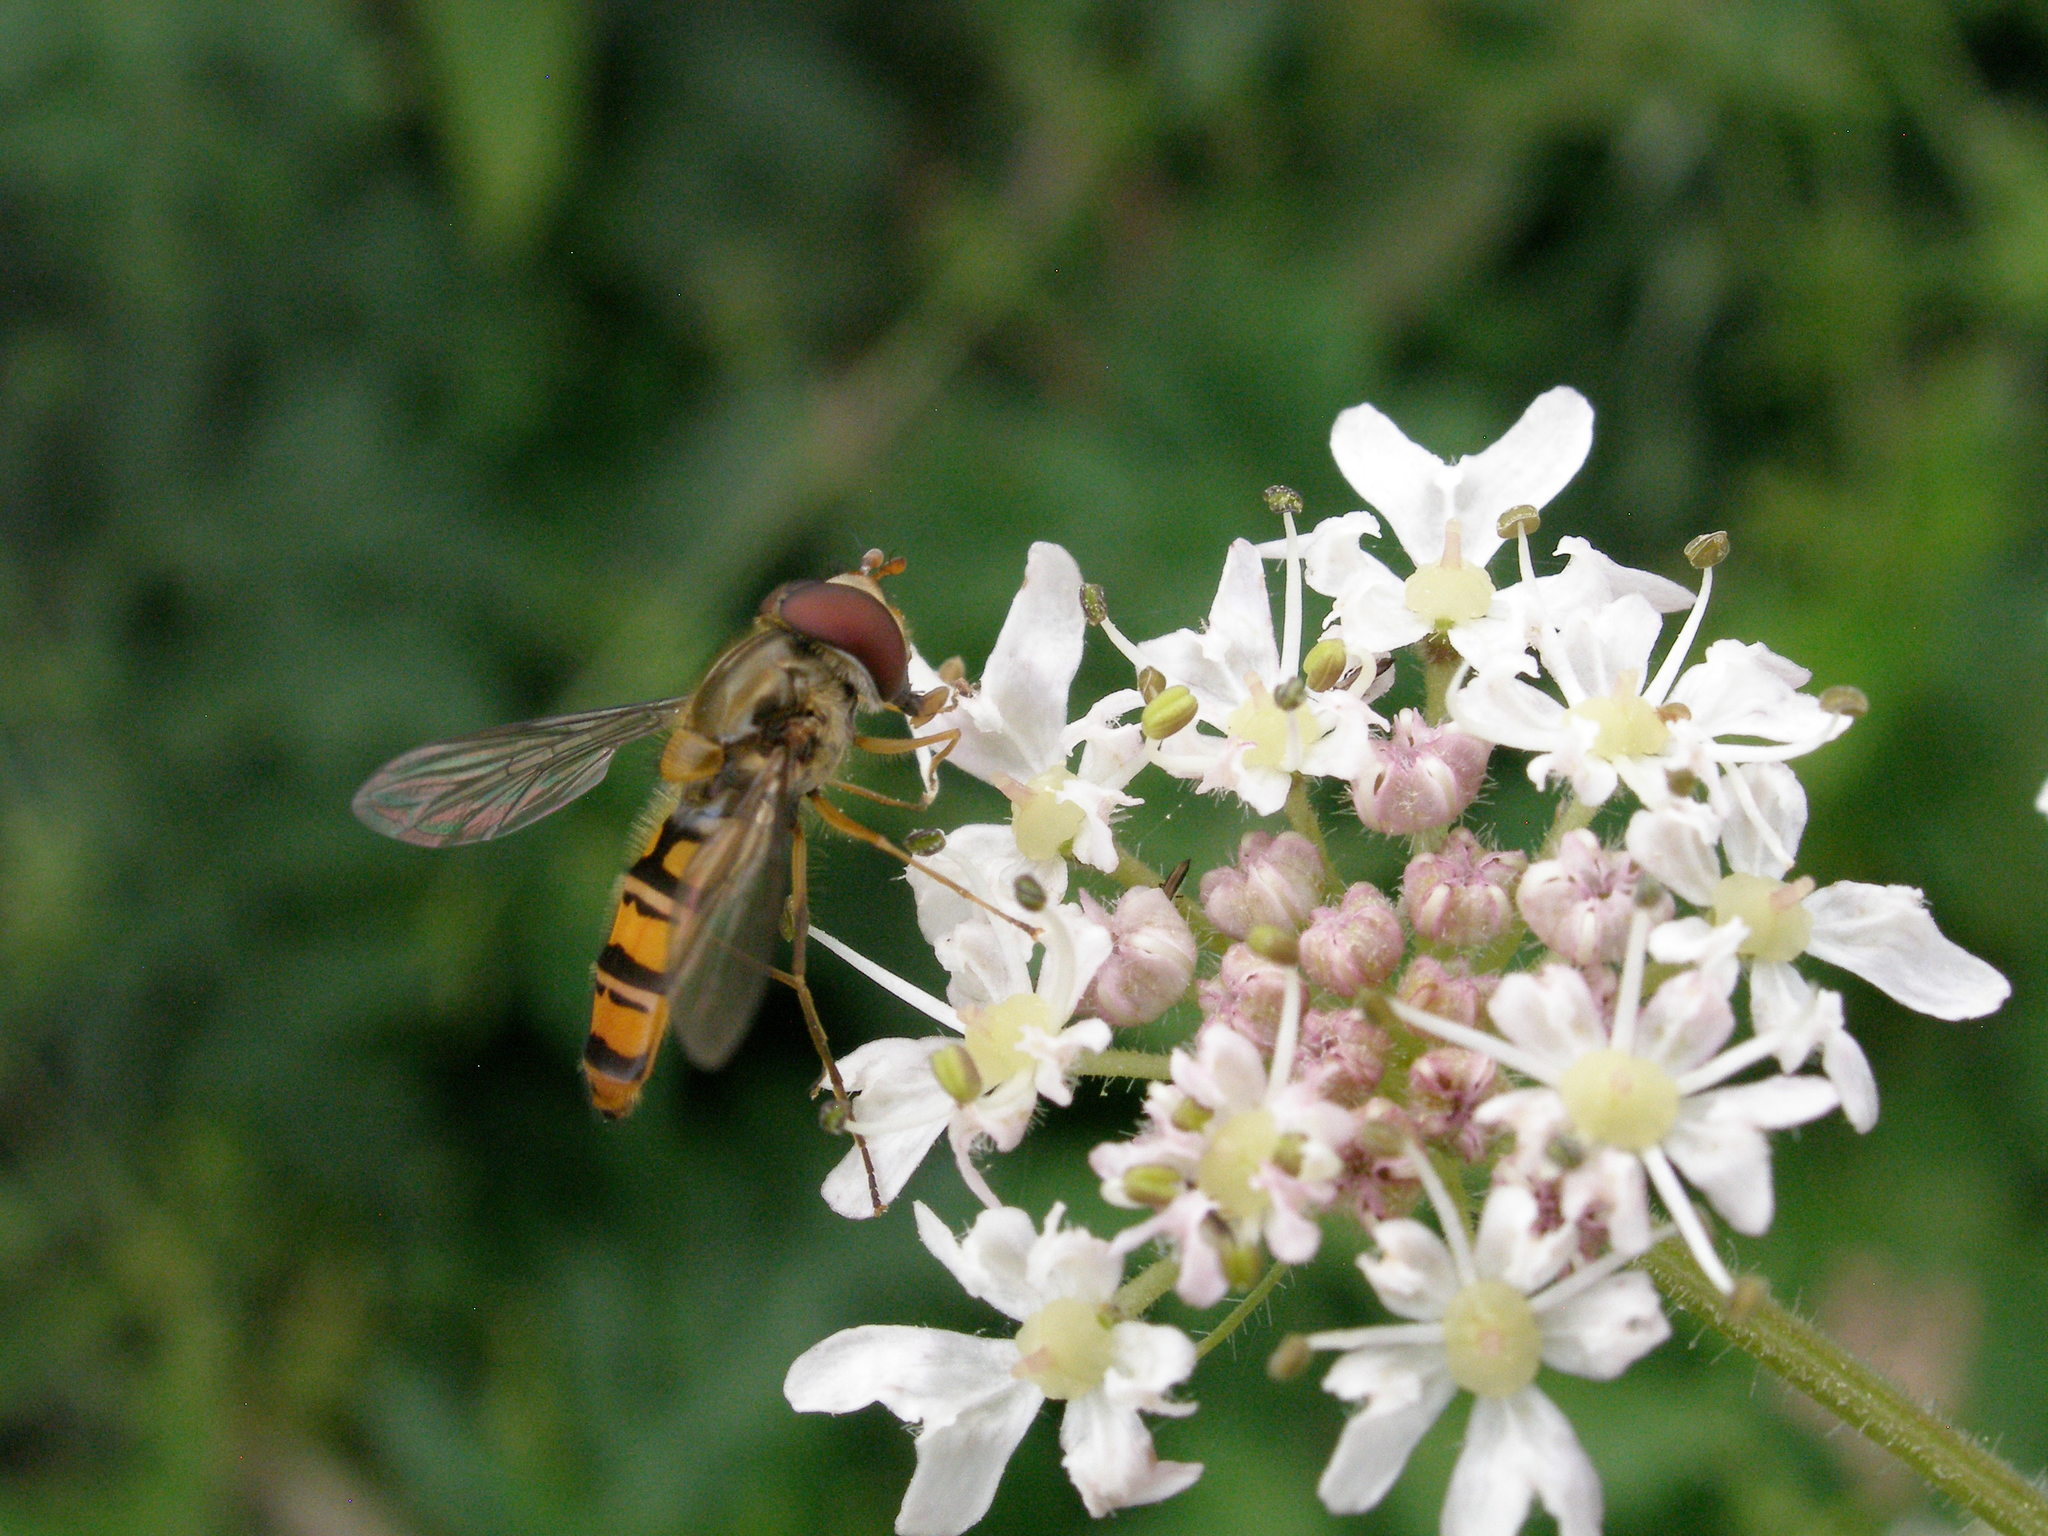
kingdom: Animalia
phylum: Arthropoda
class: Insecta
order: Diptera
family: Syrphidae
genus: Episyrphus
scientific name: Episyrphus balteatus
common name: Marmalade hoverfly
